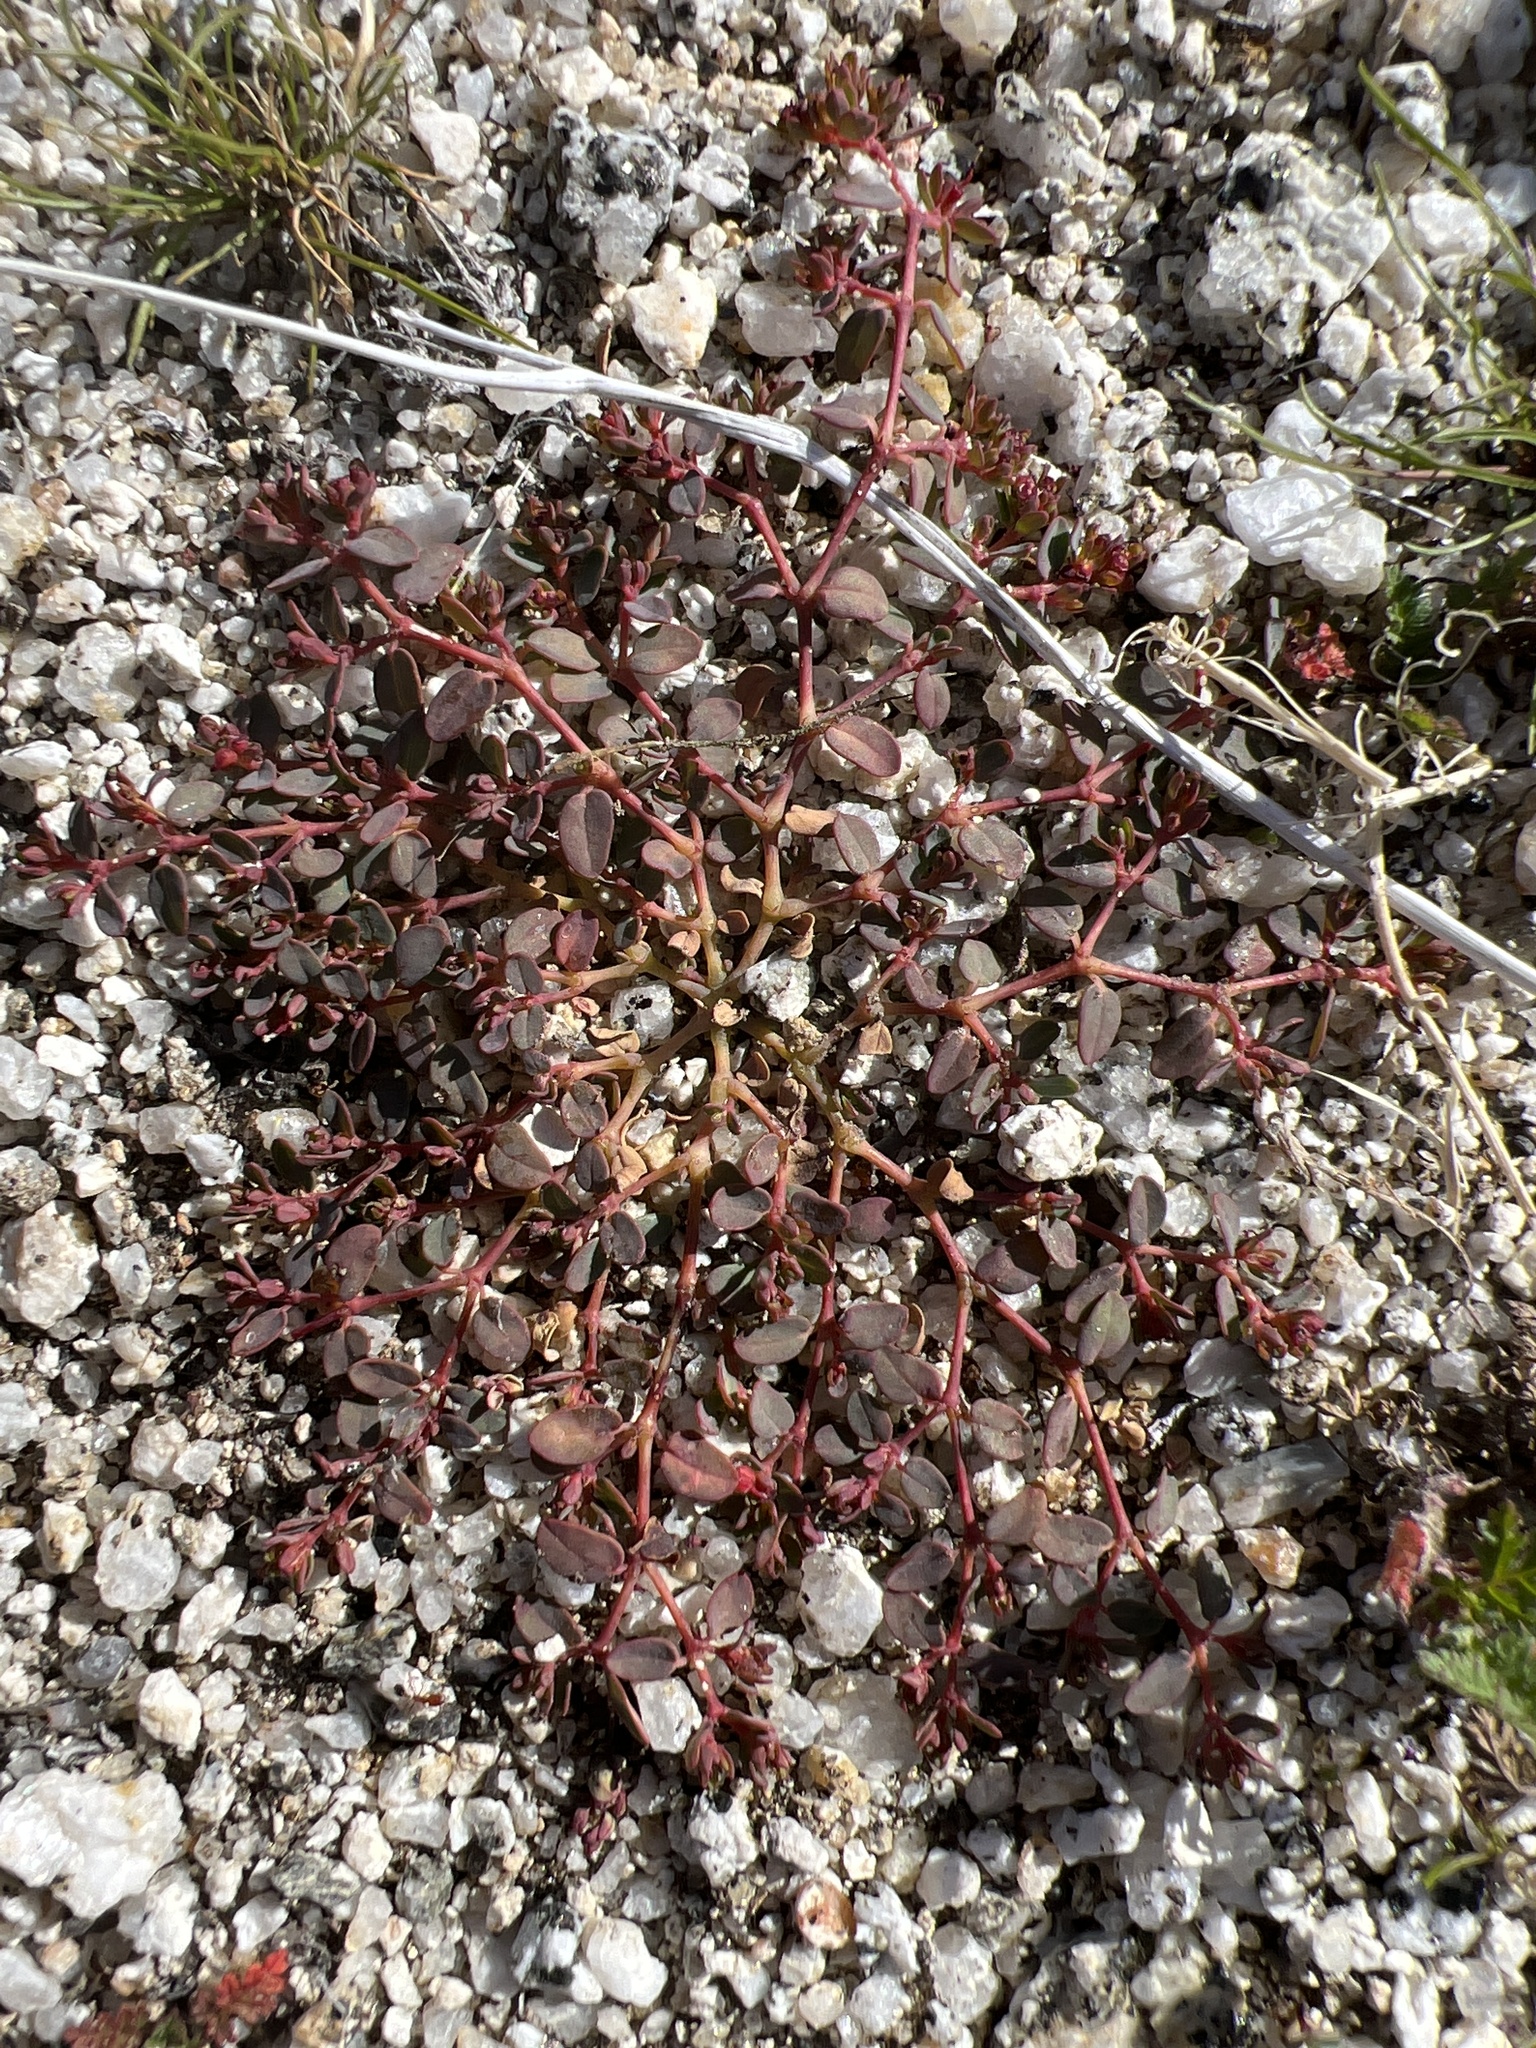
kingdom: Plantae
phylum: Tracheophyta
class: Magnoliopsida
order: Malpighiales
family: Euphorbiaceae
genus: Euphorbia
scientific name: Euphorbia polycarpa
